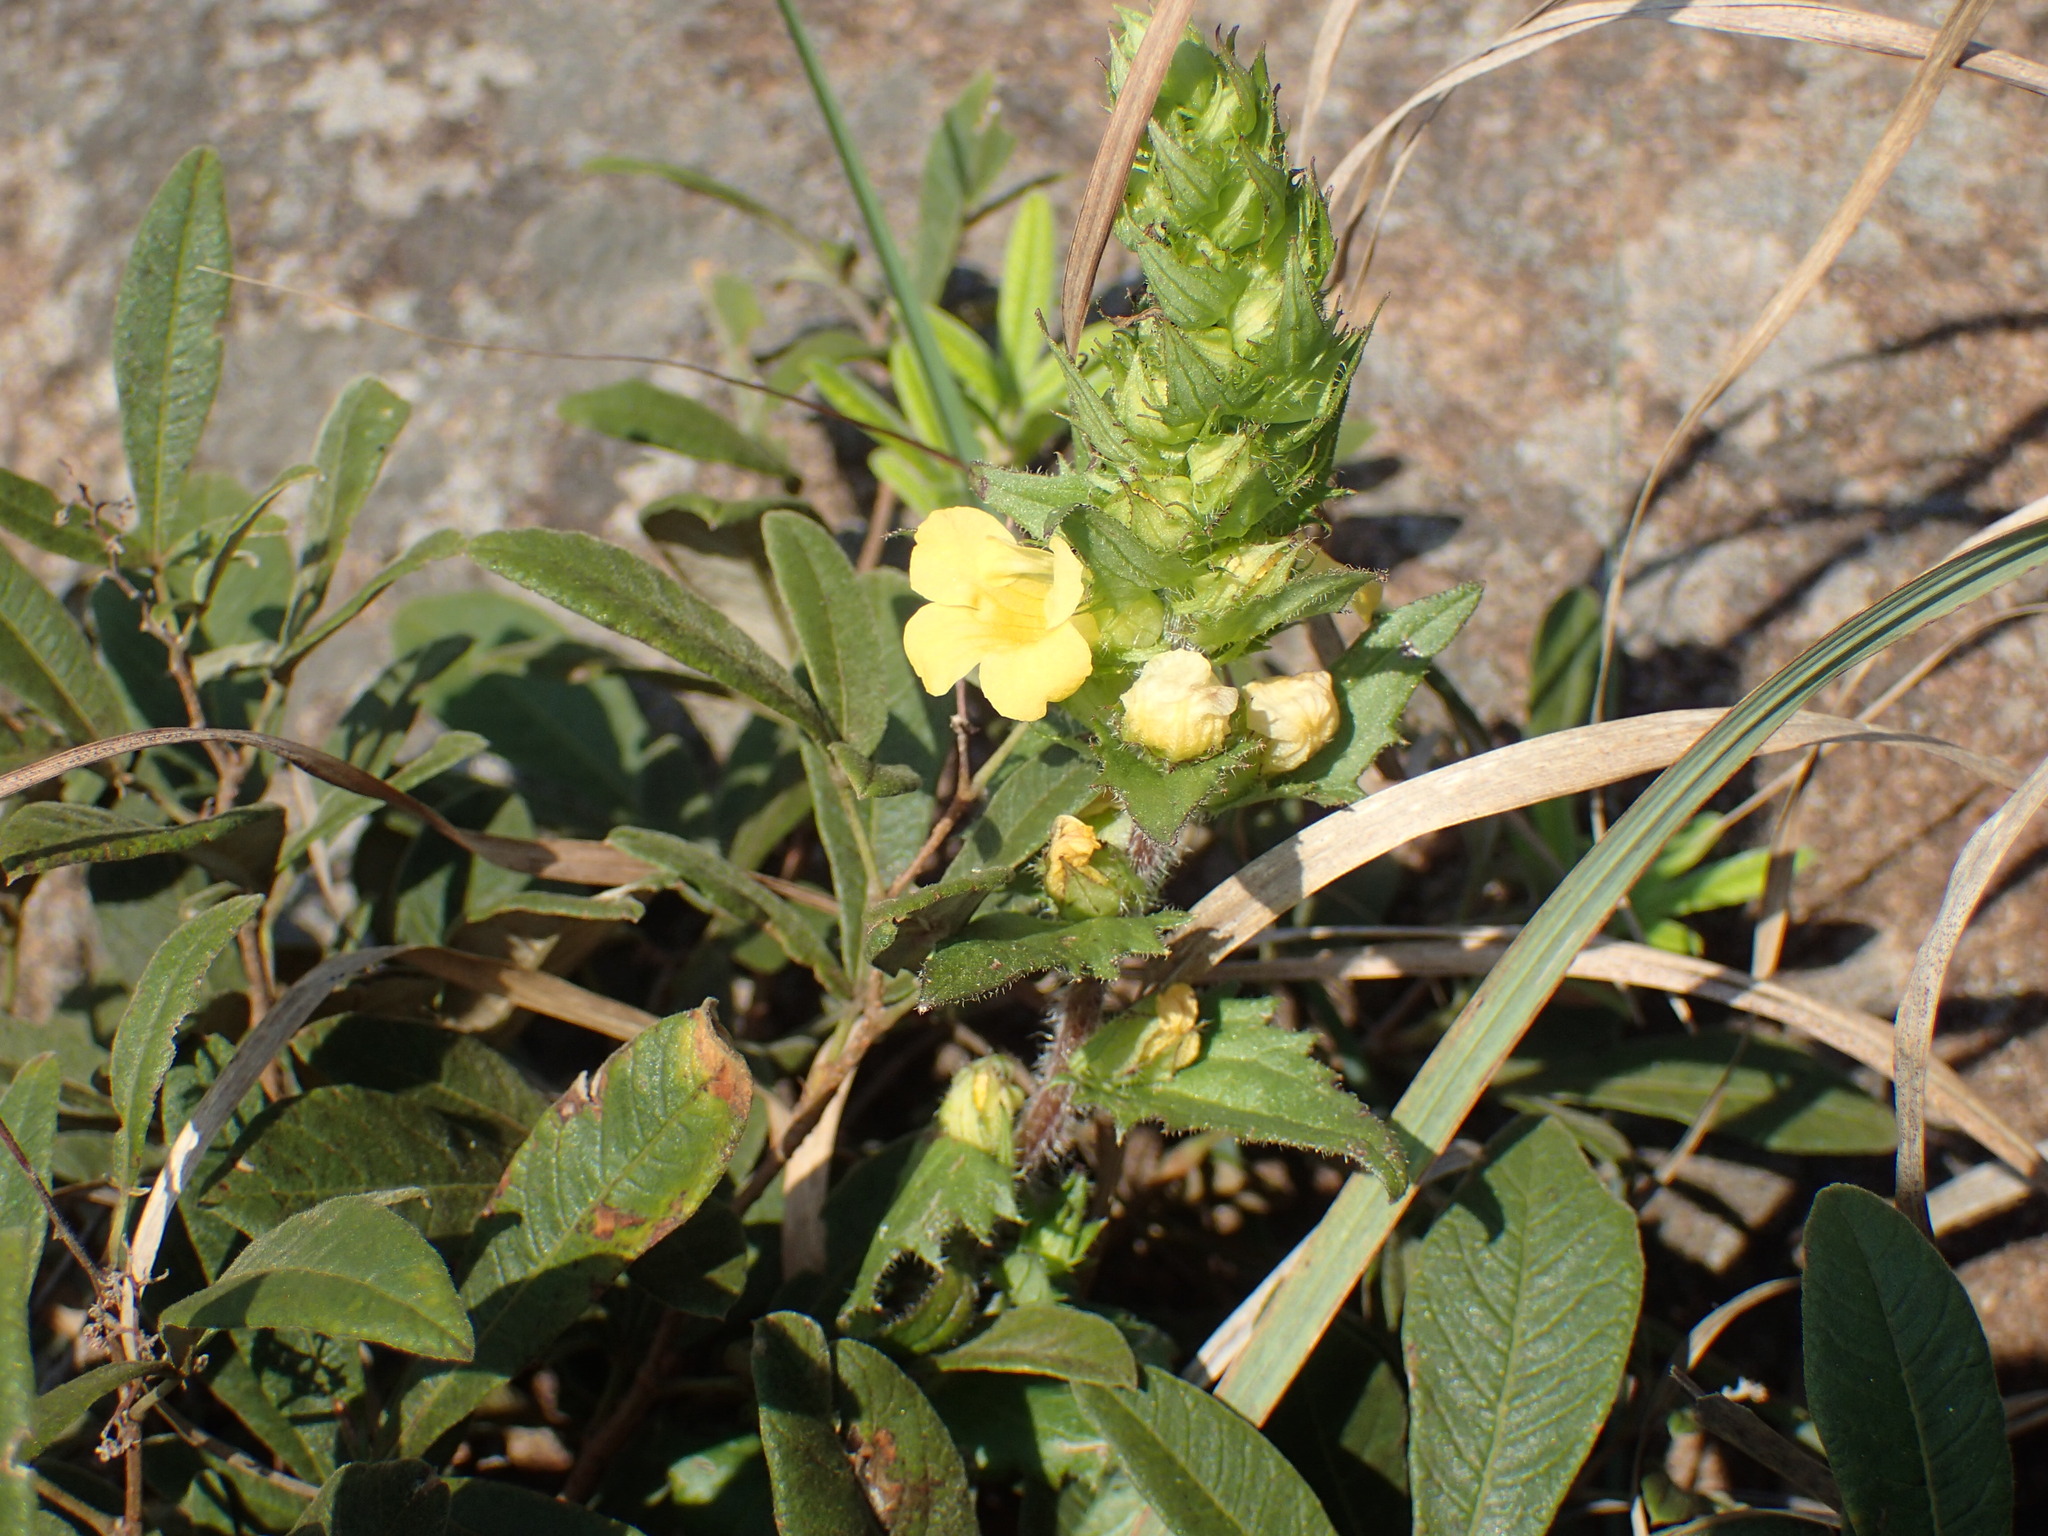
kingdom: Plantae
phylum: Tracheophyta
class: Magnoliopsida
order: Lamiales
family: Orobanchaceae
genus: Alectra
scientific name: Alectra sessiliflora
